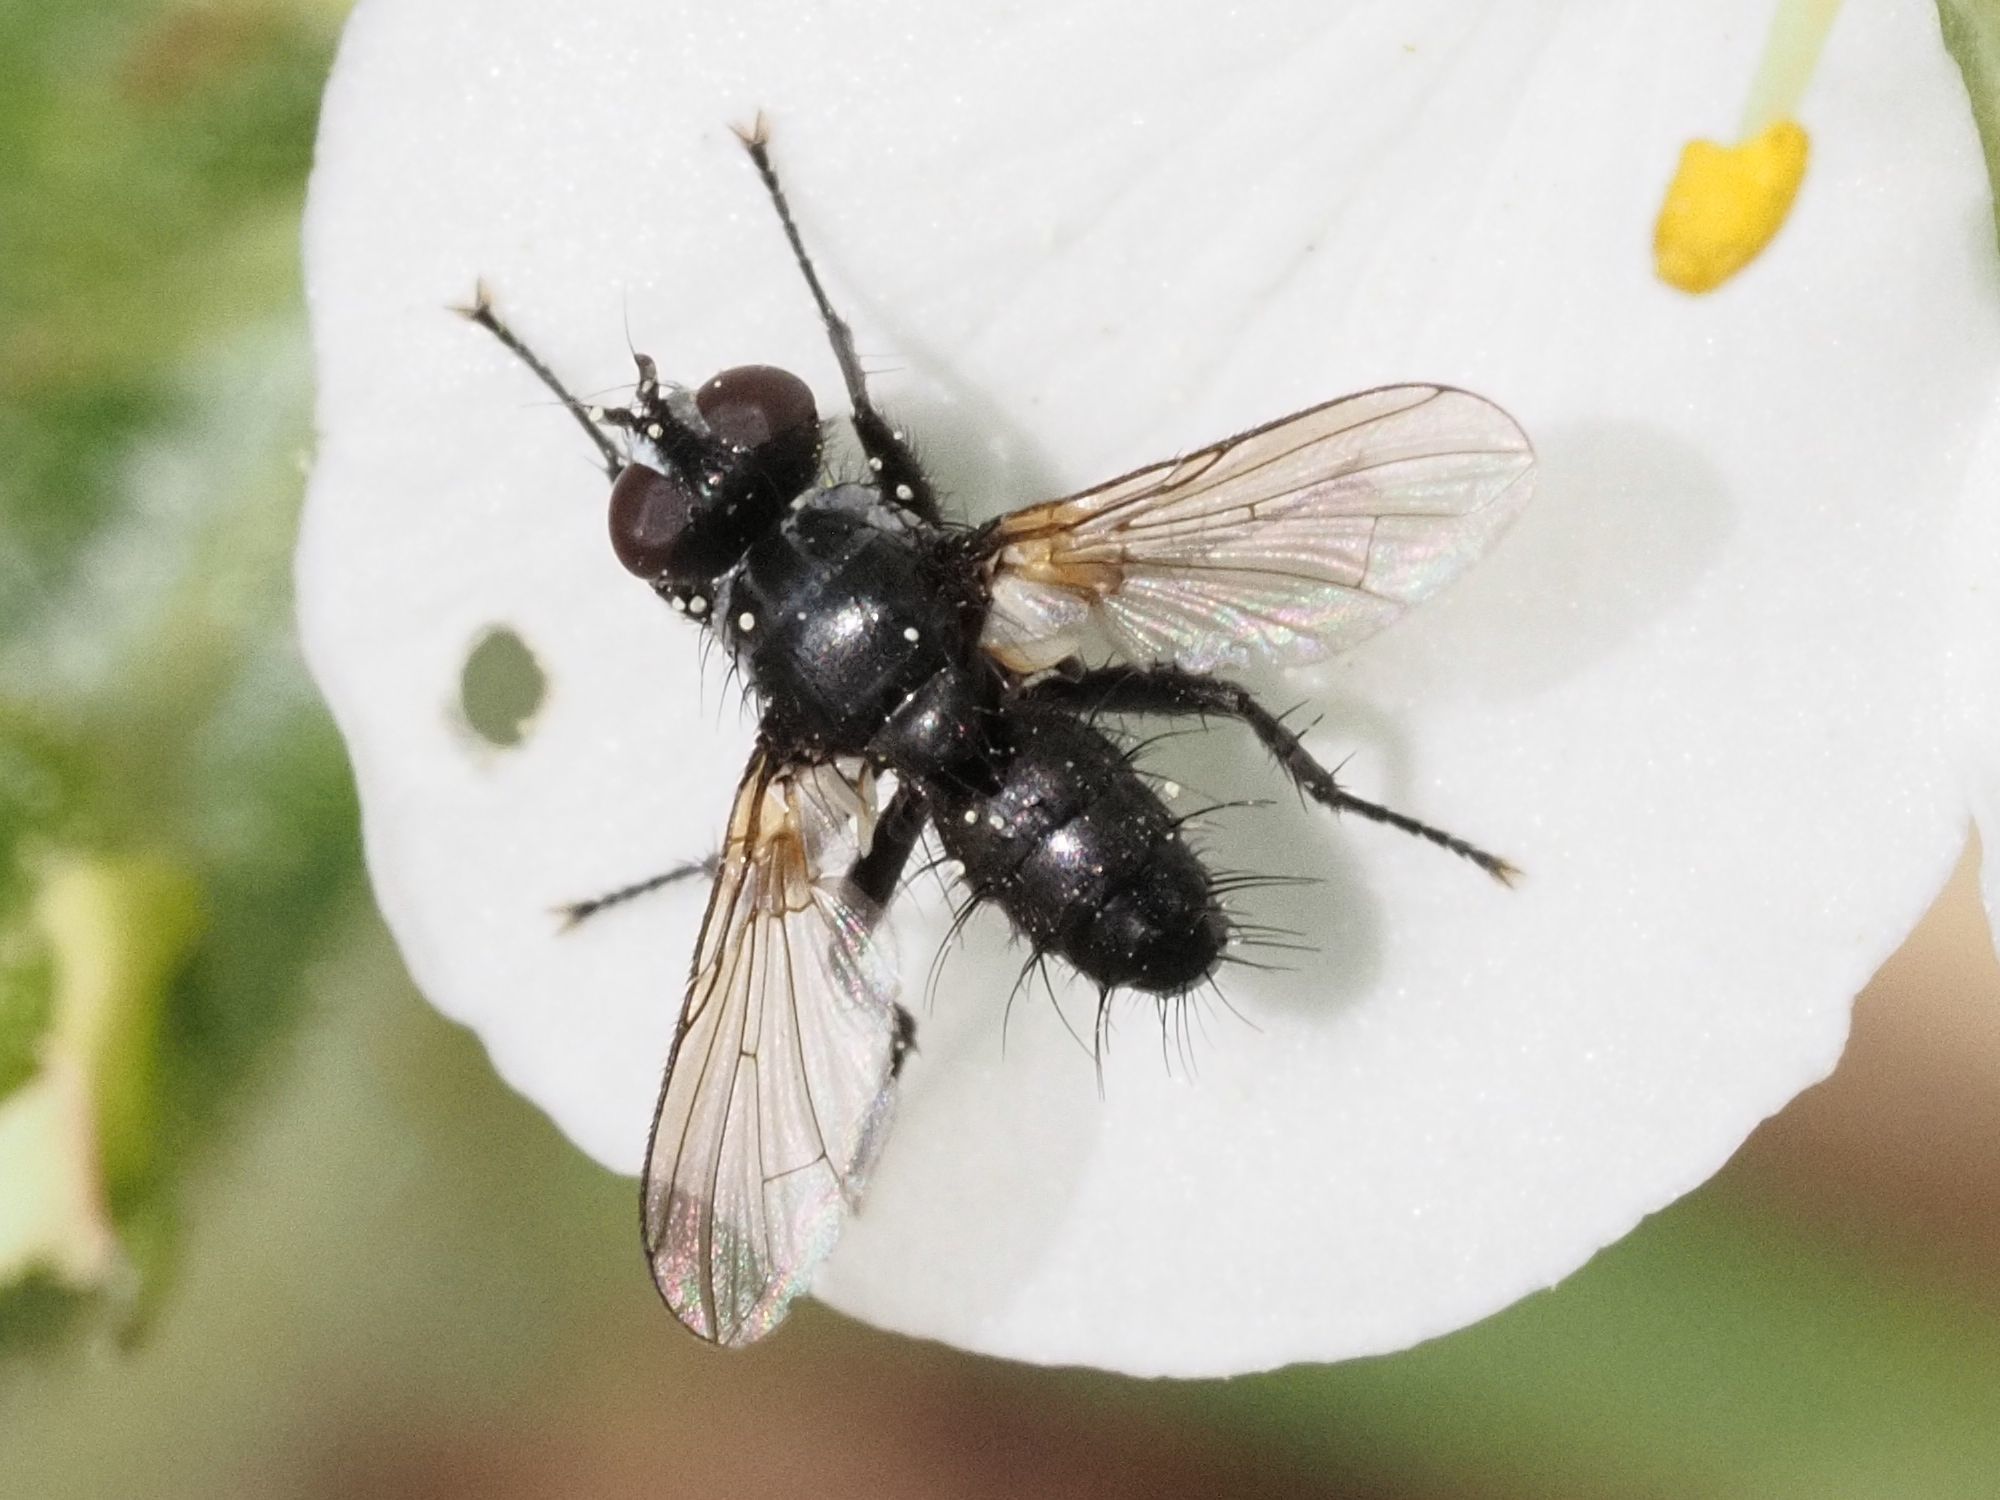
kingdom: Animalia
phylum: Arthropoda
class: Insecta
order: Diptera
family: Tachinidae
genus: Phania
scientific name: Phania funesta
